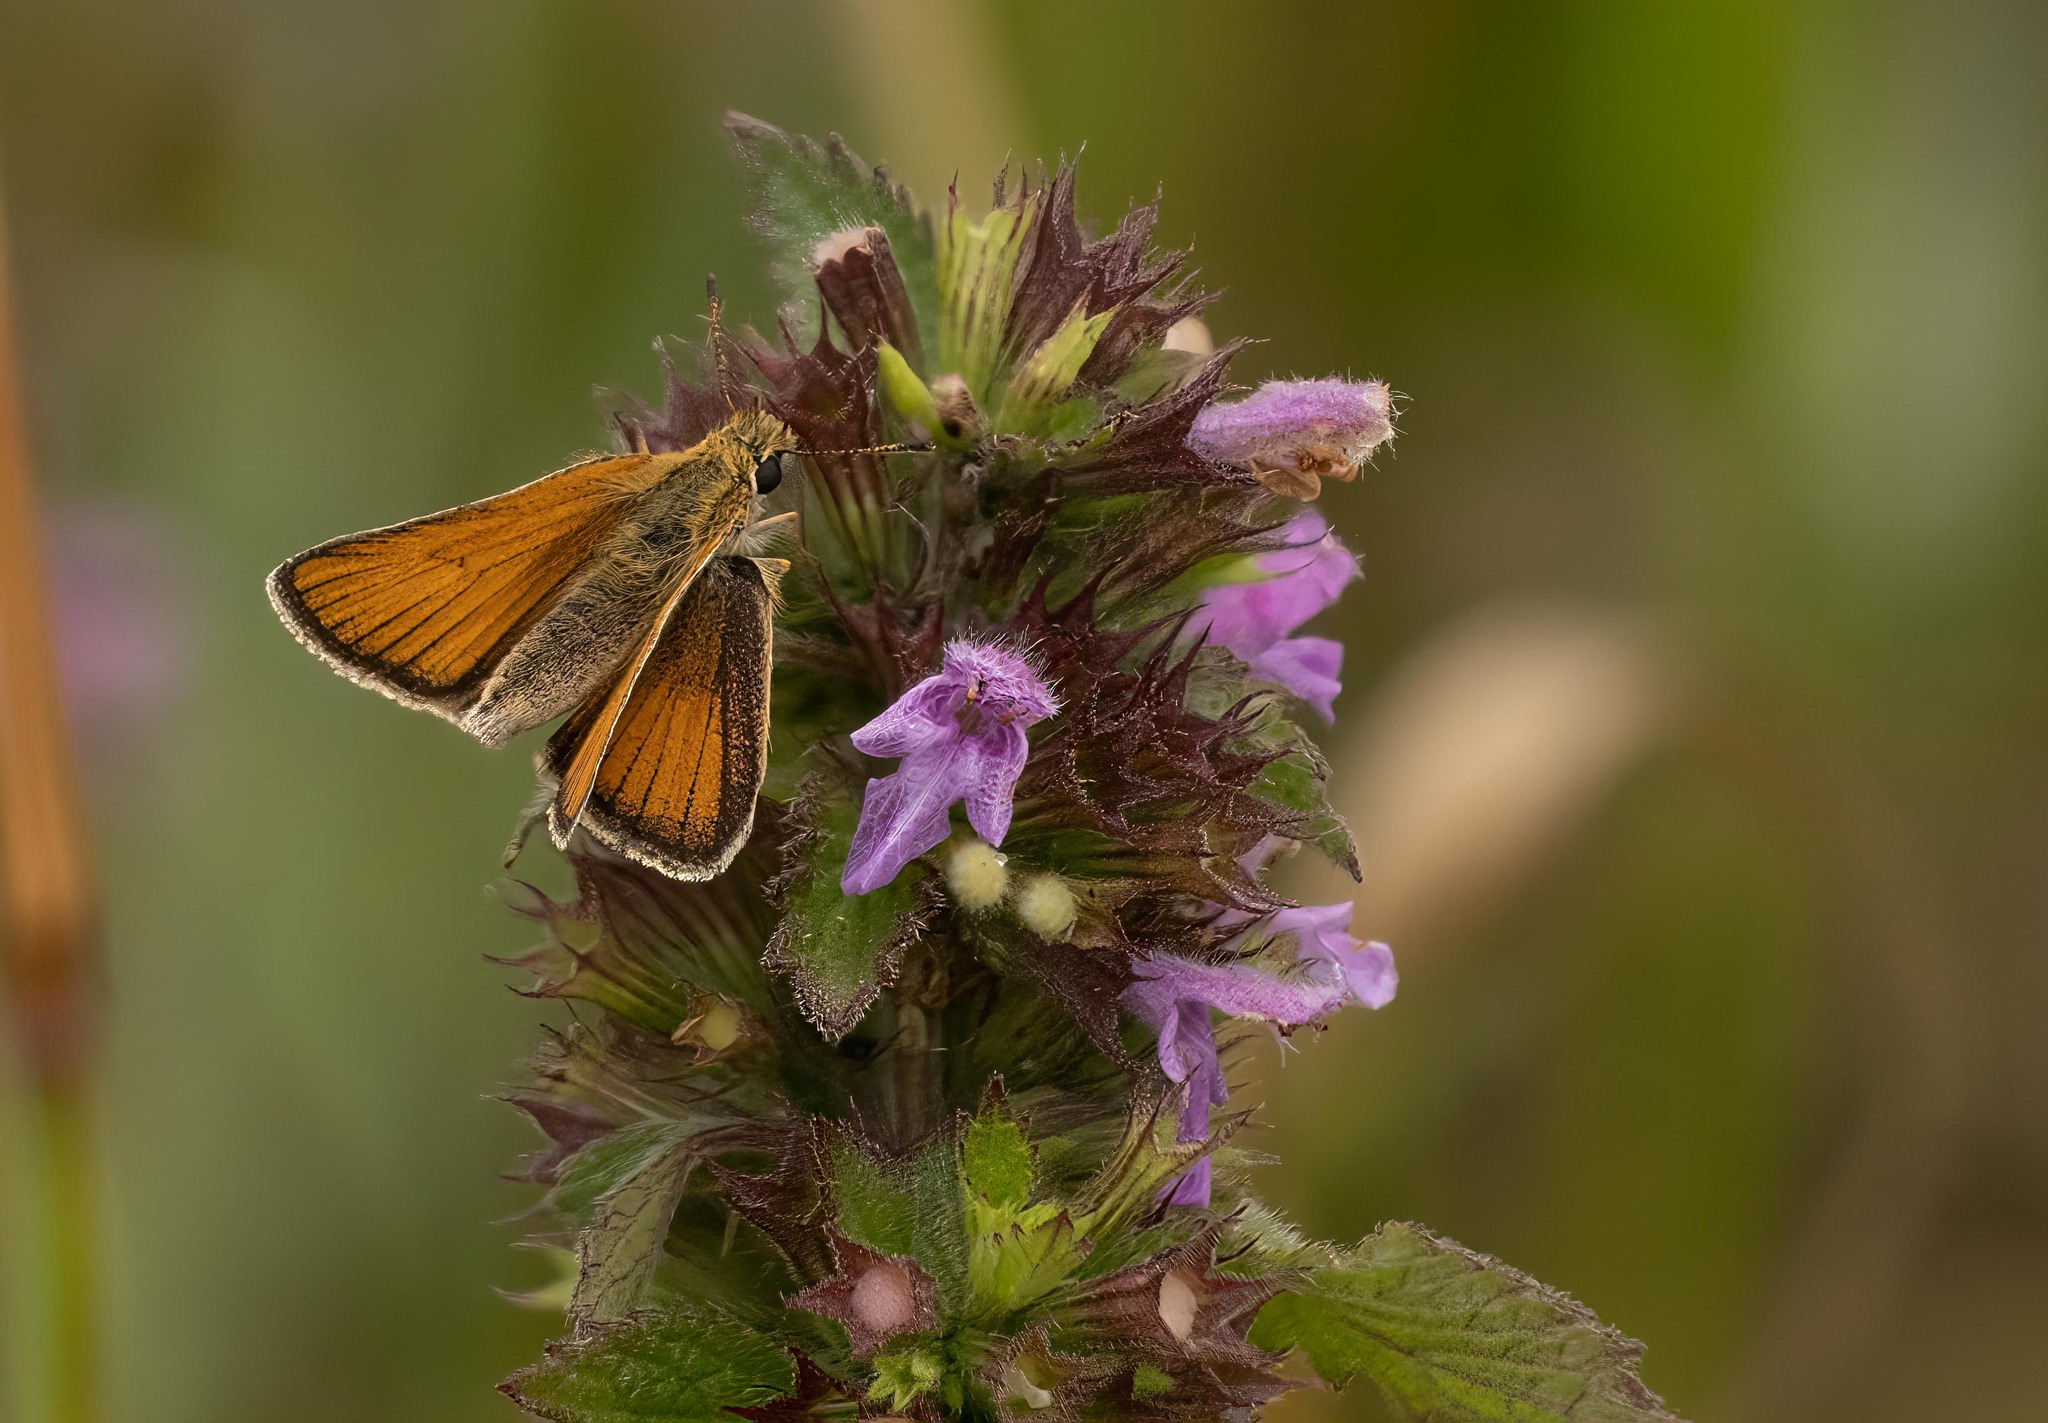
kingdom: Animalia
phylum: Arthropoda
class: Insecta
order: Lepidoptera
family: Hesperiidae
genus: Thymelicus
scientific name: Thymelicus lineola
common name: Essex skipper
